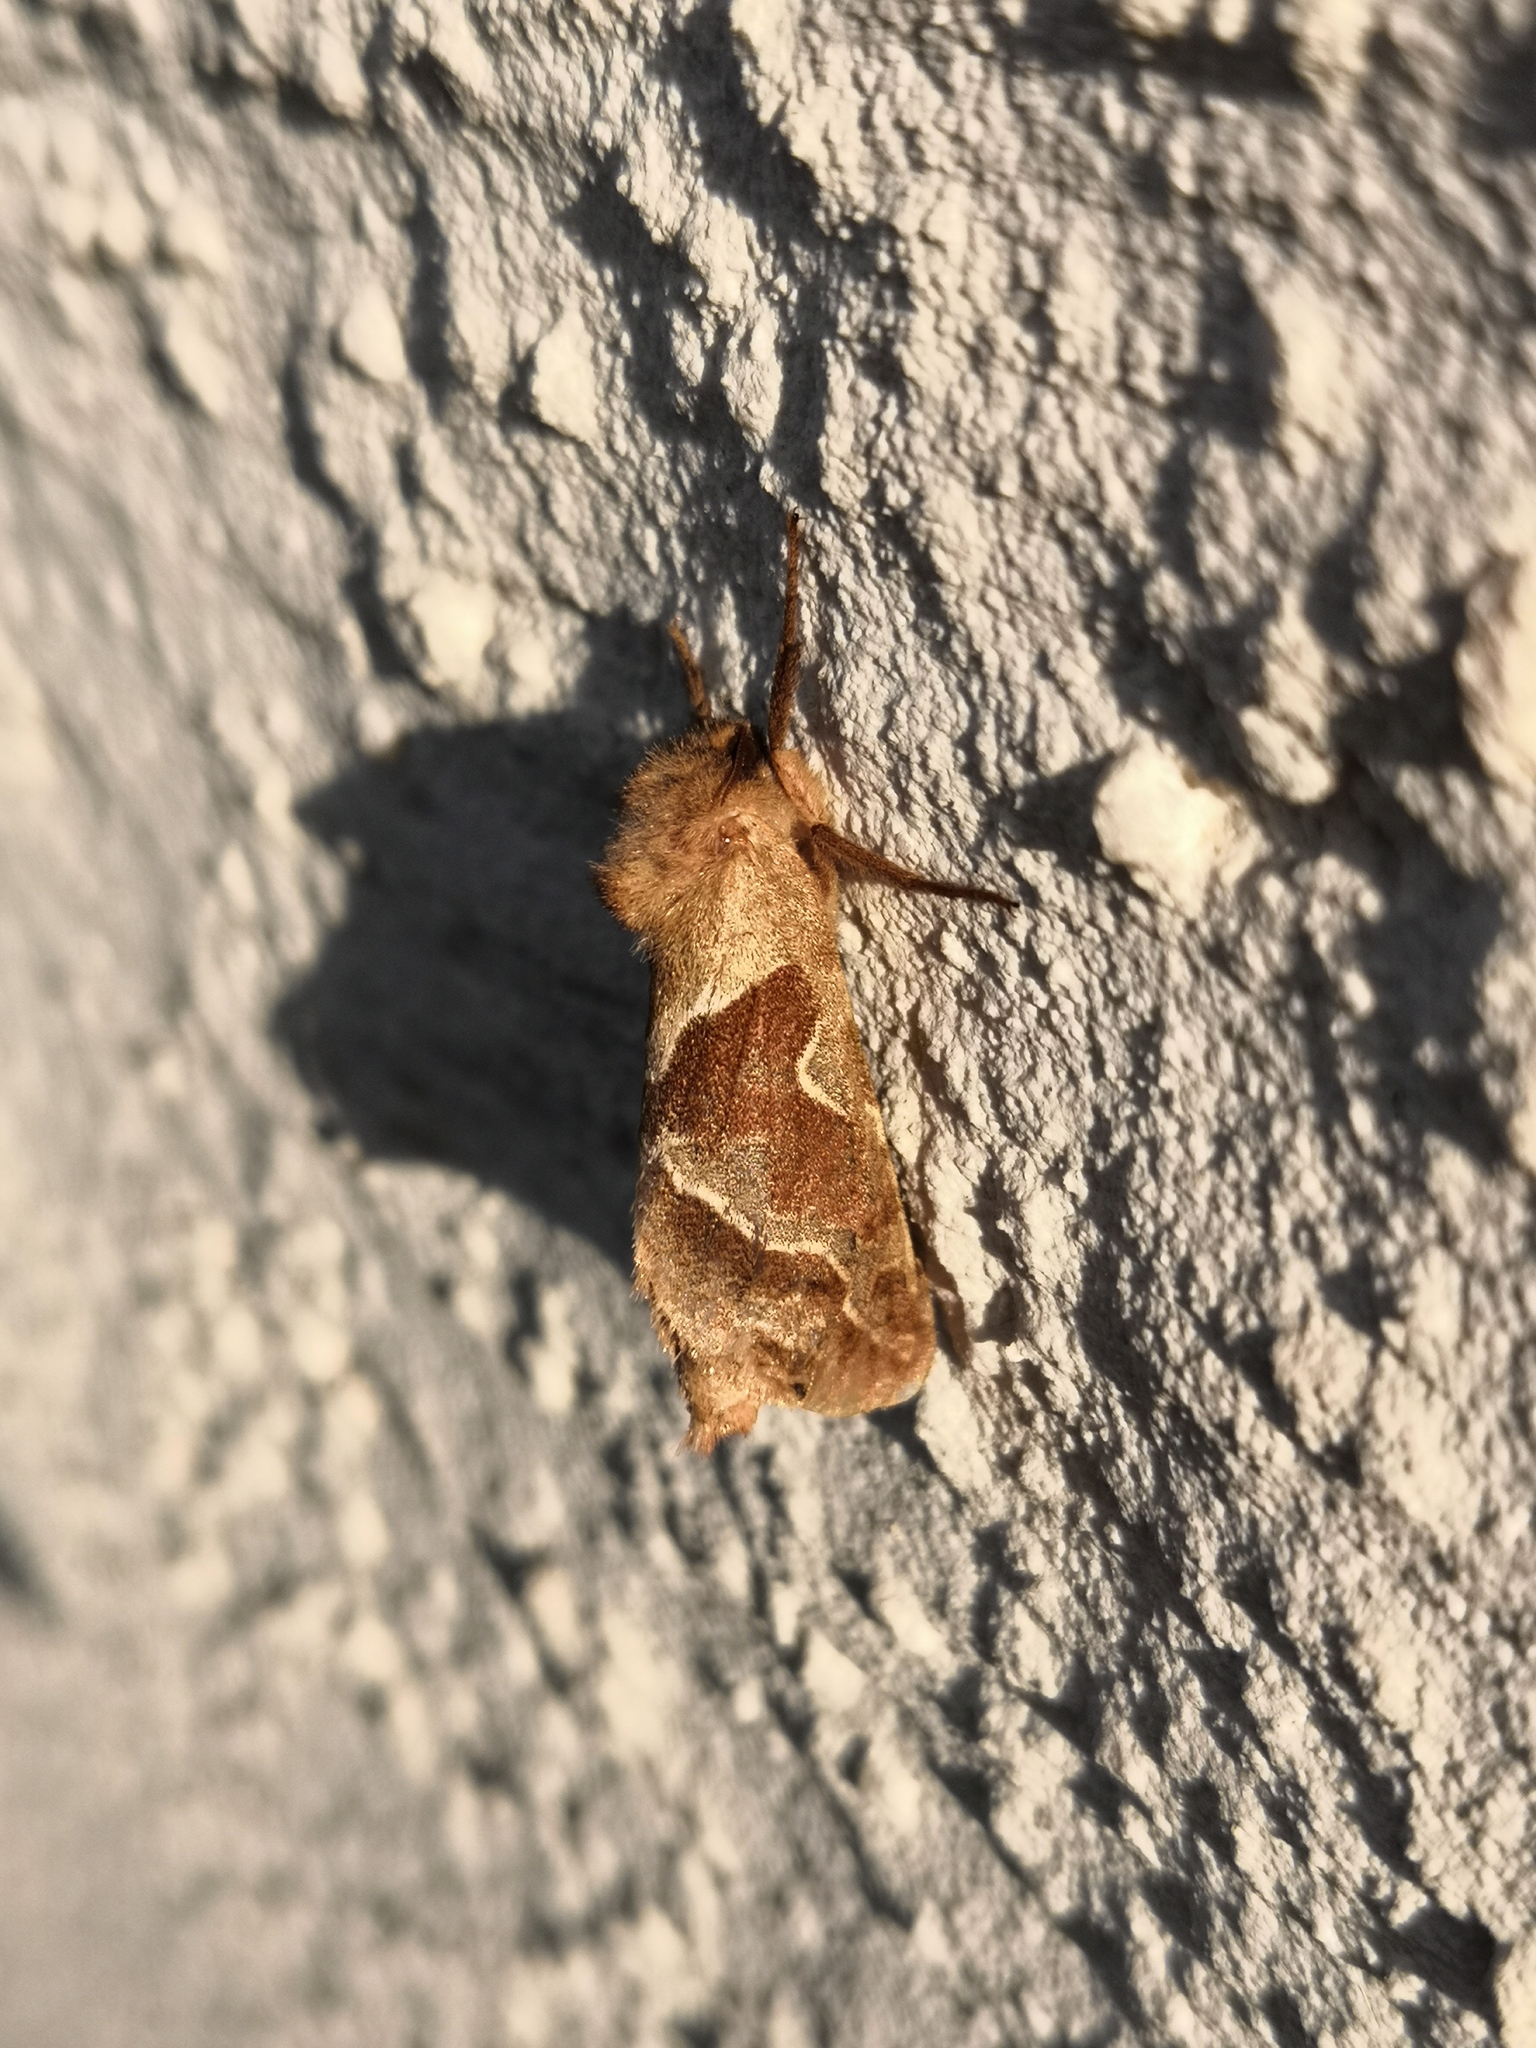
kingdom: Animalia
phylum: Arthropoda
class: Insecta
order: Lepidoptera
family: Hepialidae
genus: Triodia
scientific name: Triodia sylvina
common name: Orange swift
